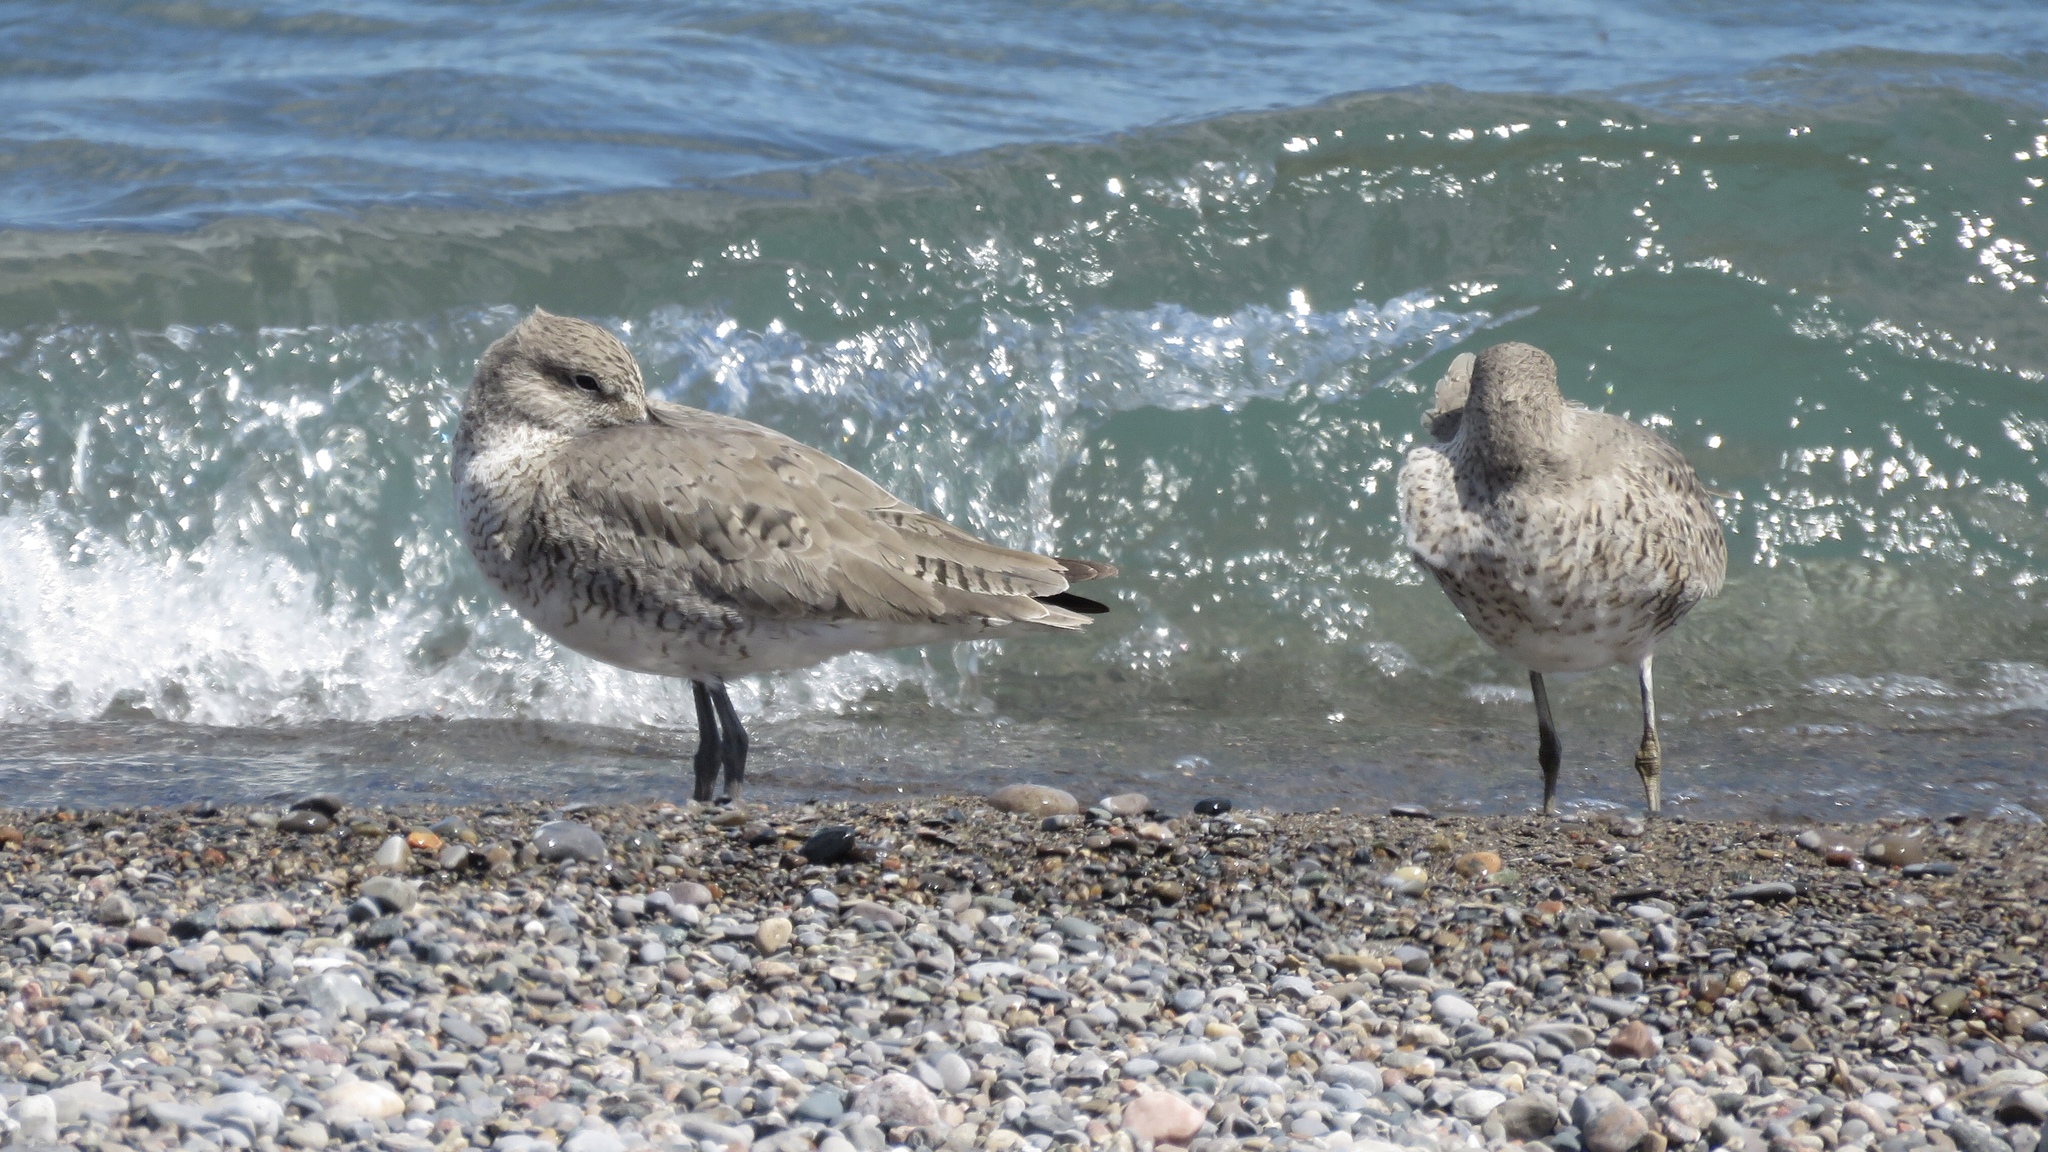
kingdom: Animalia
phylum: Chordata
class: Aves
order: Charadriiformes
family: Scolopacidae
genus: Tringa
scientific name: Tringa semipalmata
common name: Willet
